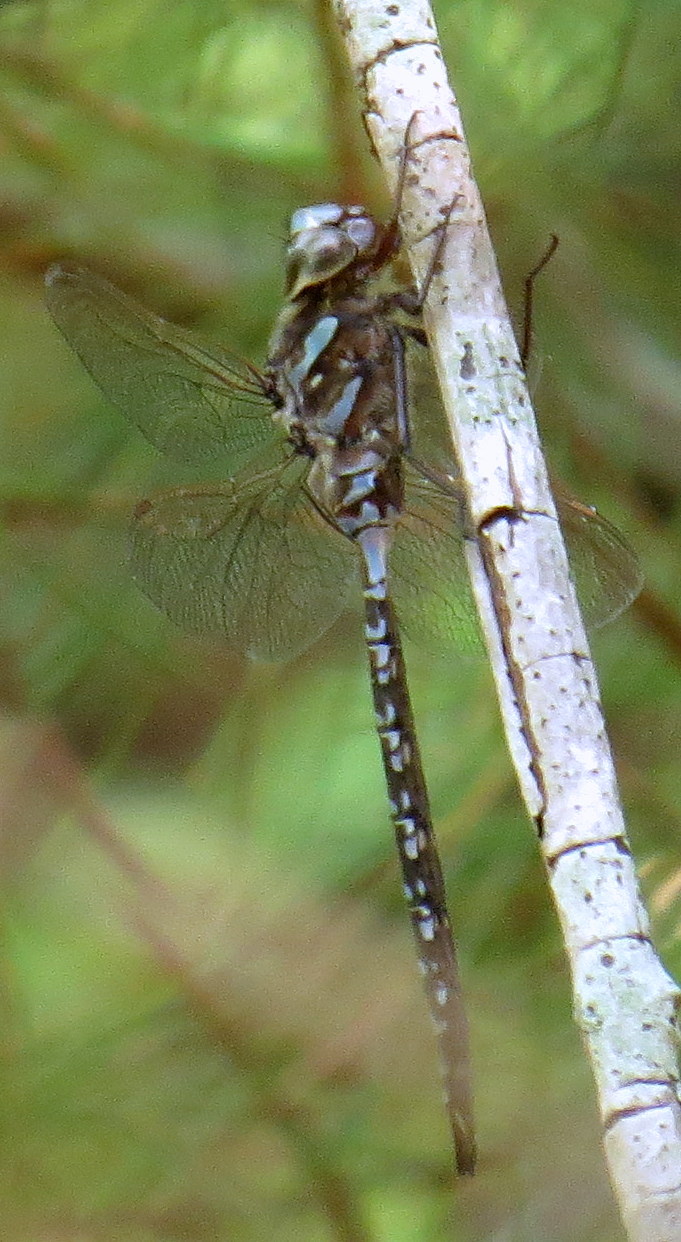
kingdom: Animalia
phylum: Arthropoda
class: Insecta
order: Odonata
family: Aeshnidae
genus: Aeshna
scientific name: Aeshna canadensis
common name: Canada darner
